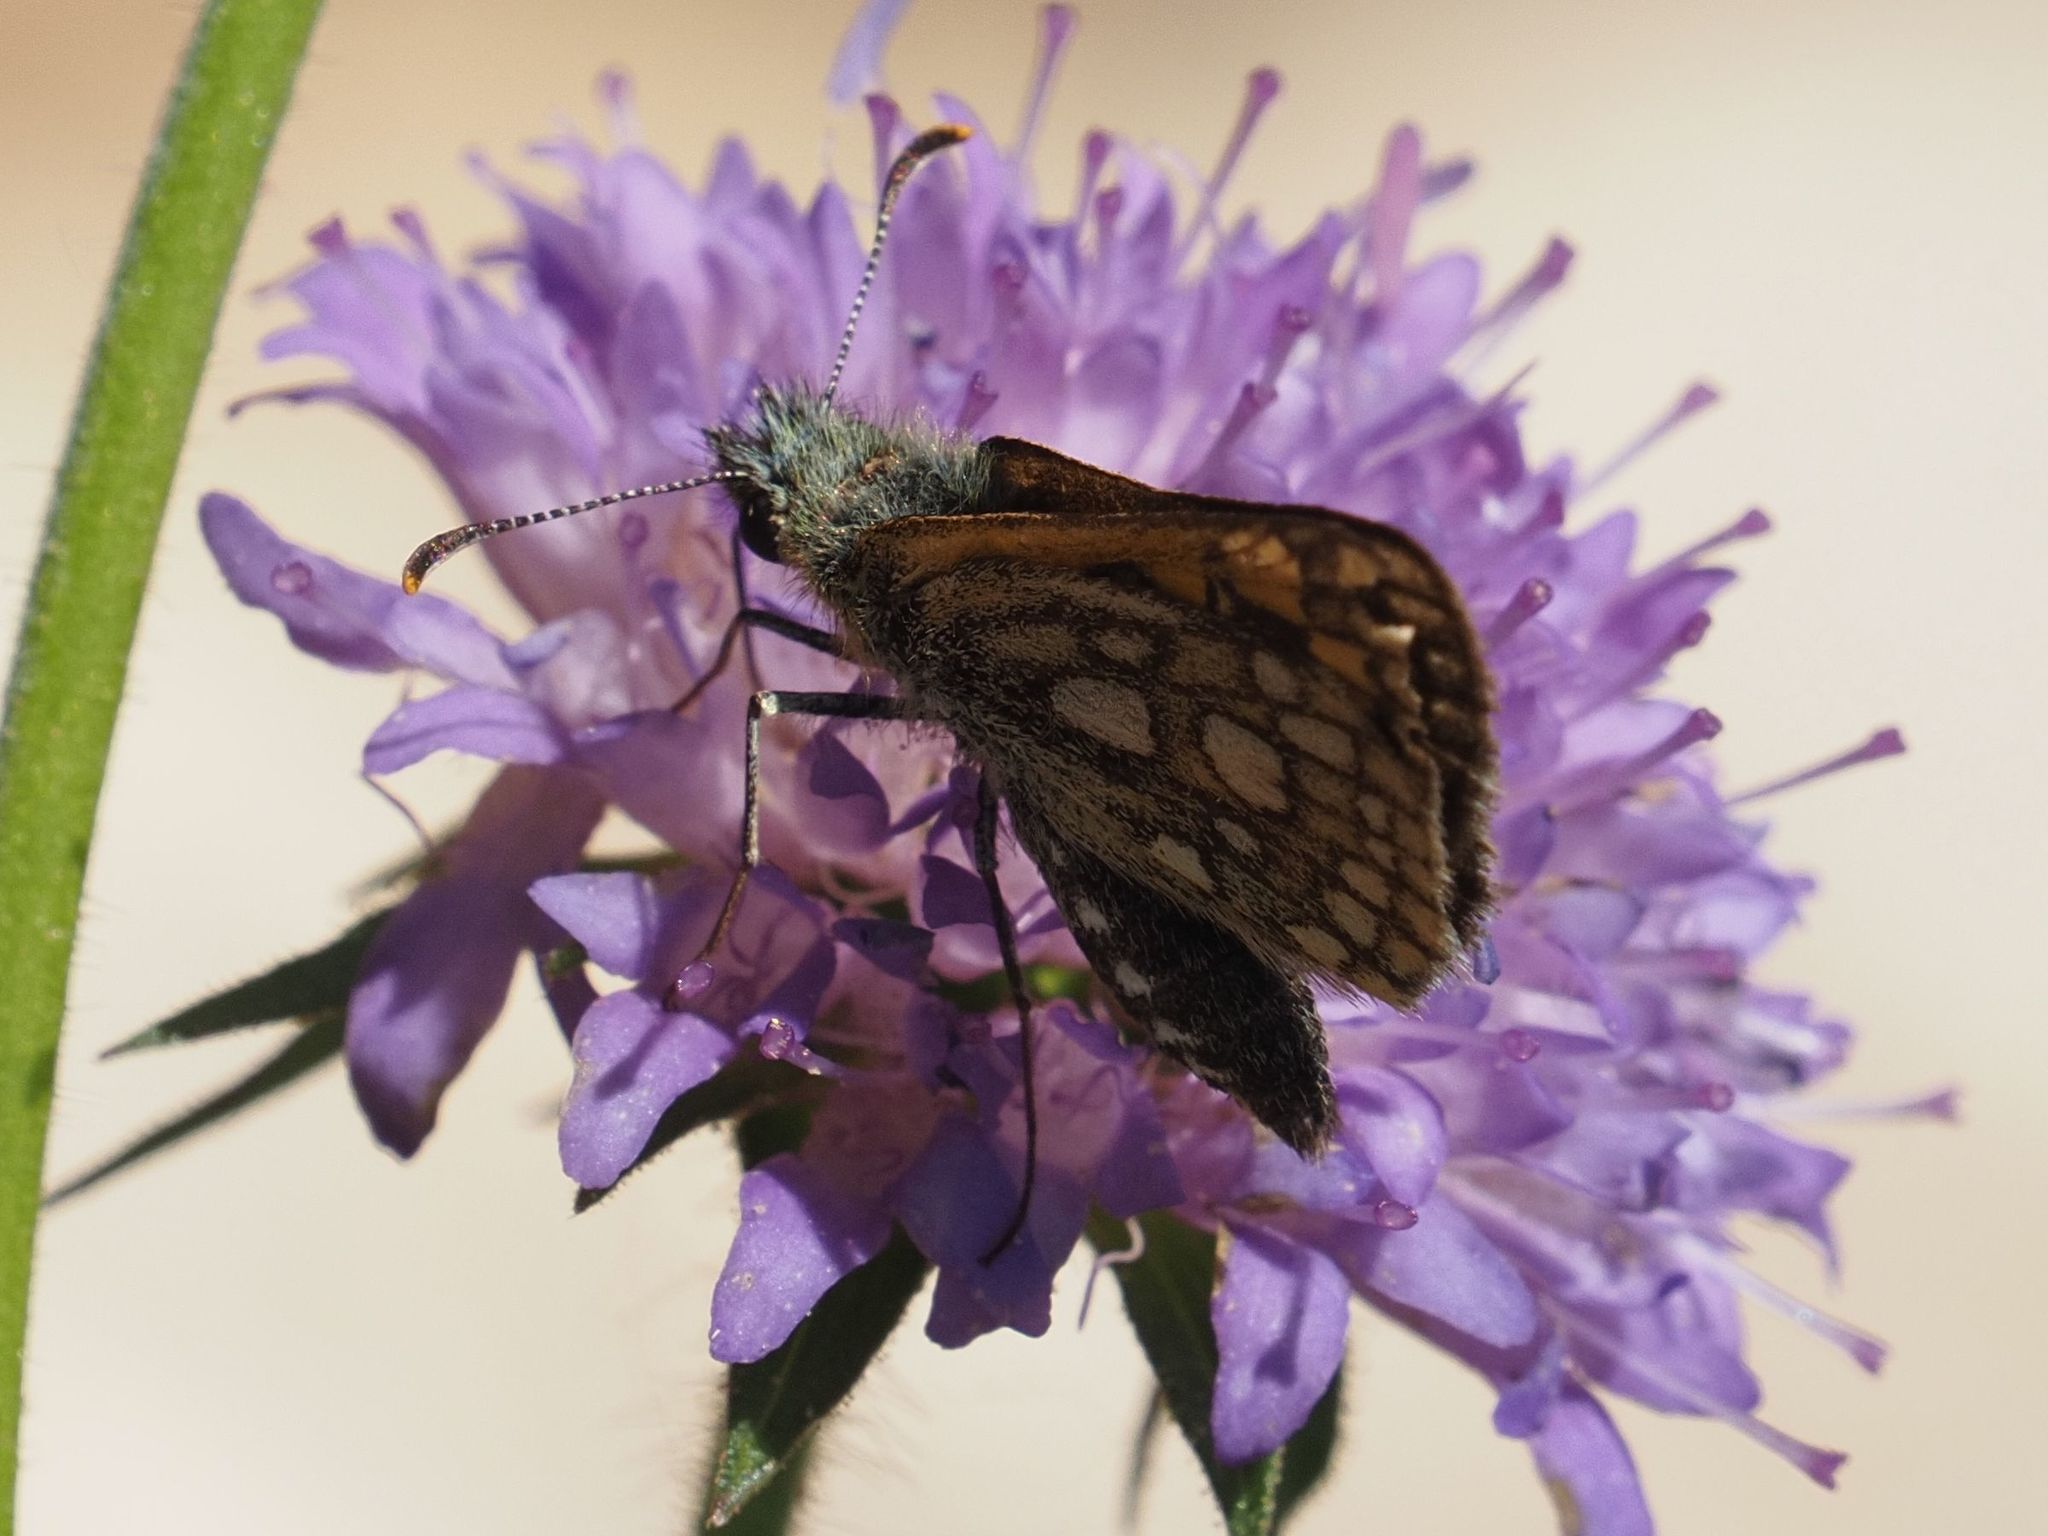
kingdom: Animalia
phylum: Arthropoda
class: Insecta
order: Lepidoptera
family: Hesperiidae
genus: Carterocephalus
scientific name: Carterocephalus palaemon
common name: Chequered skipper
